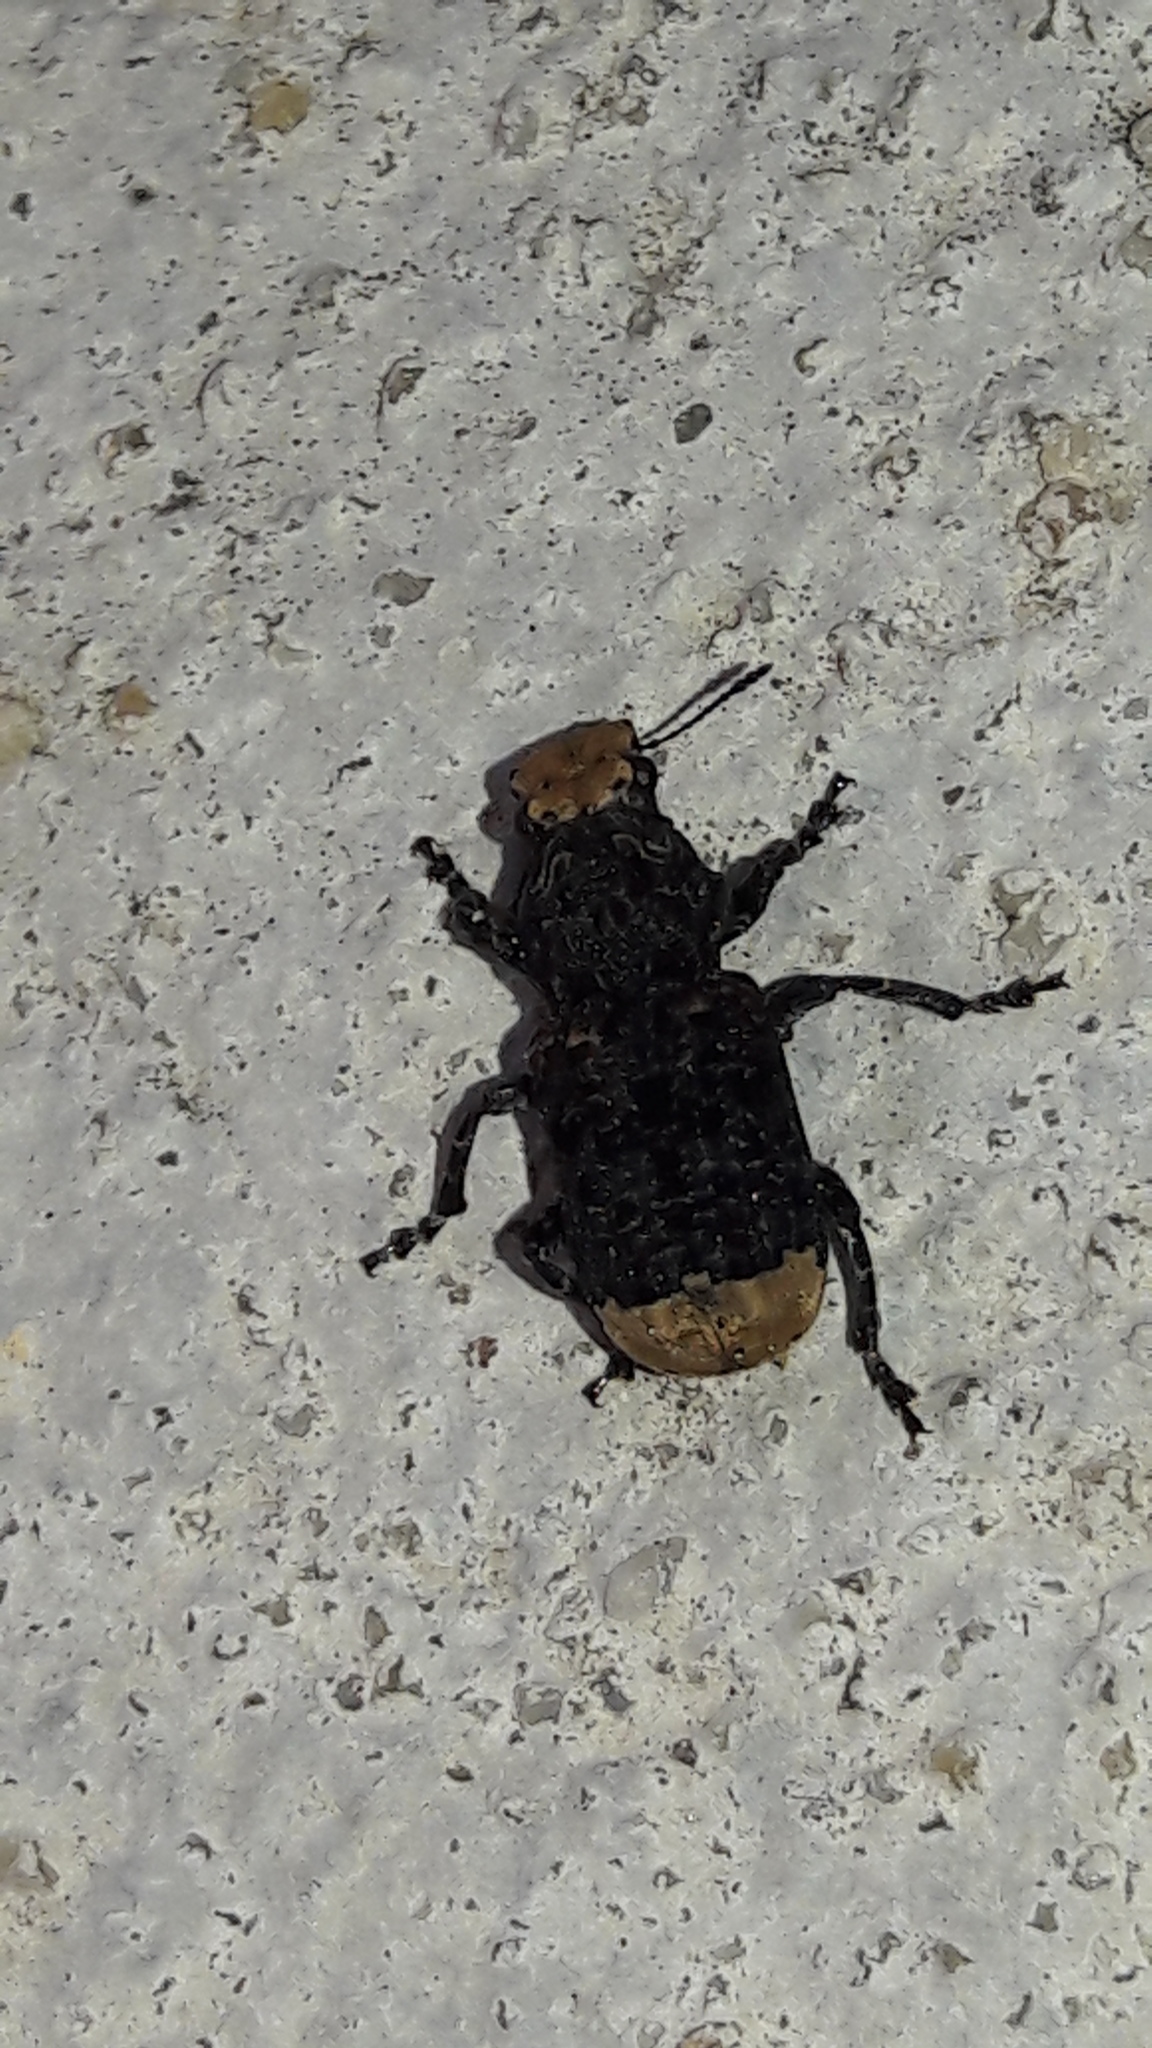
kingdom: Animalia
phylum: Arthropoda
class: Insecta
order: Coleoptera
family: Anthribidae
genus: Platyrhinus
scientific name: Platyrhinus resinosus
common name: Cramp-ball fungus weevil
